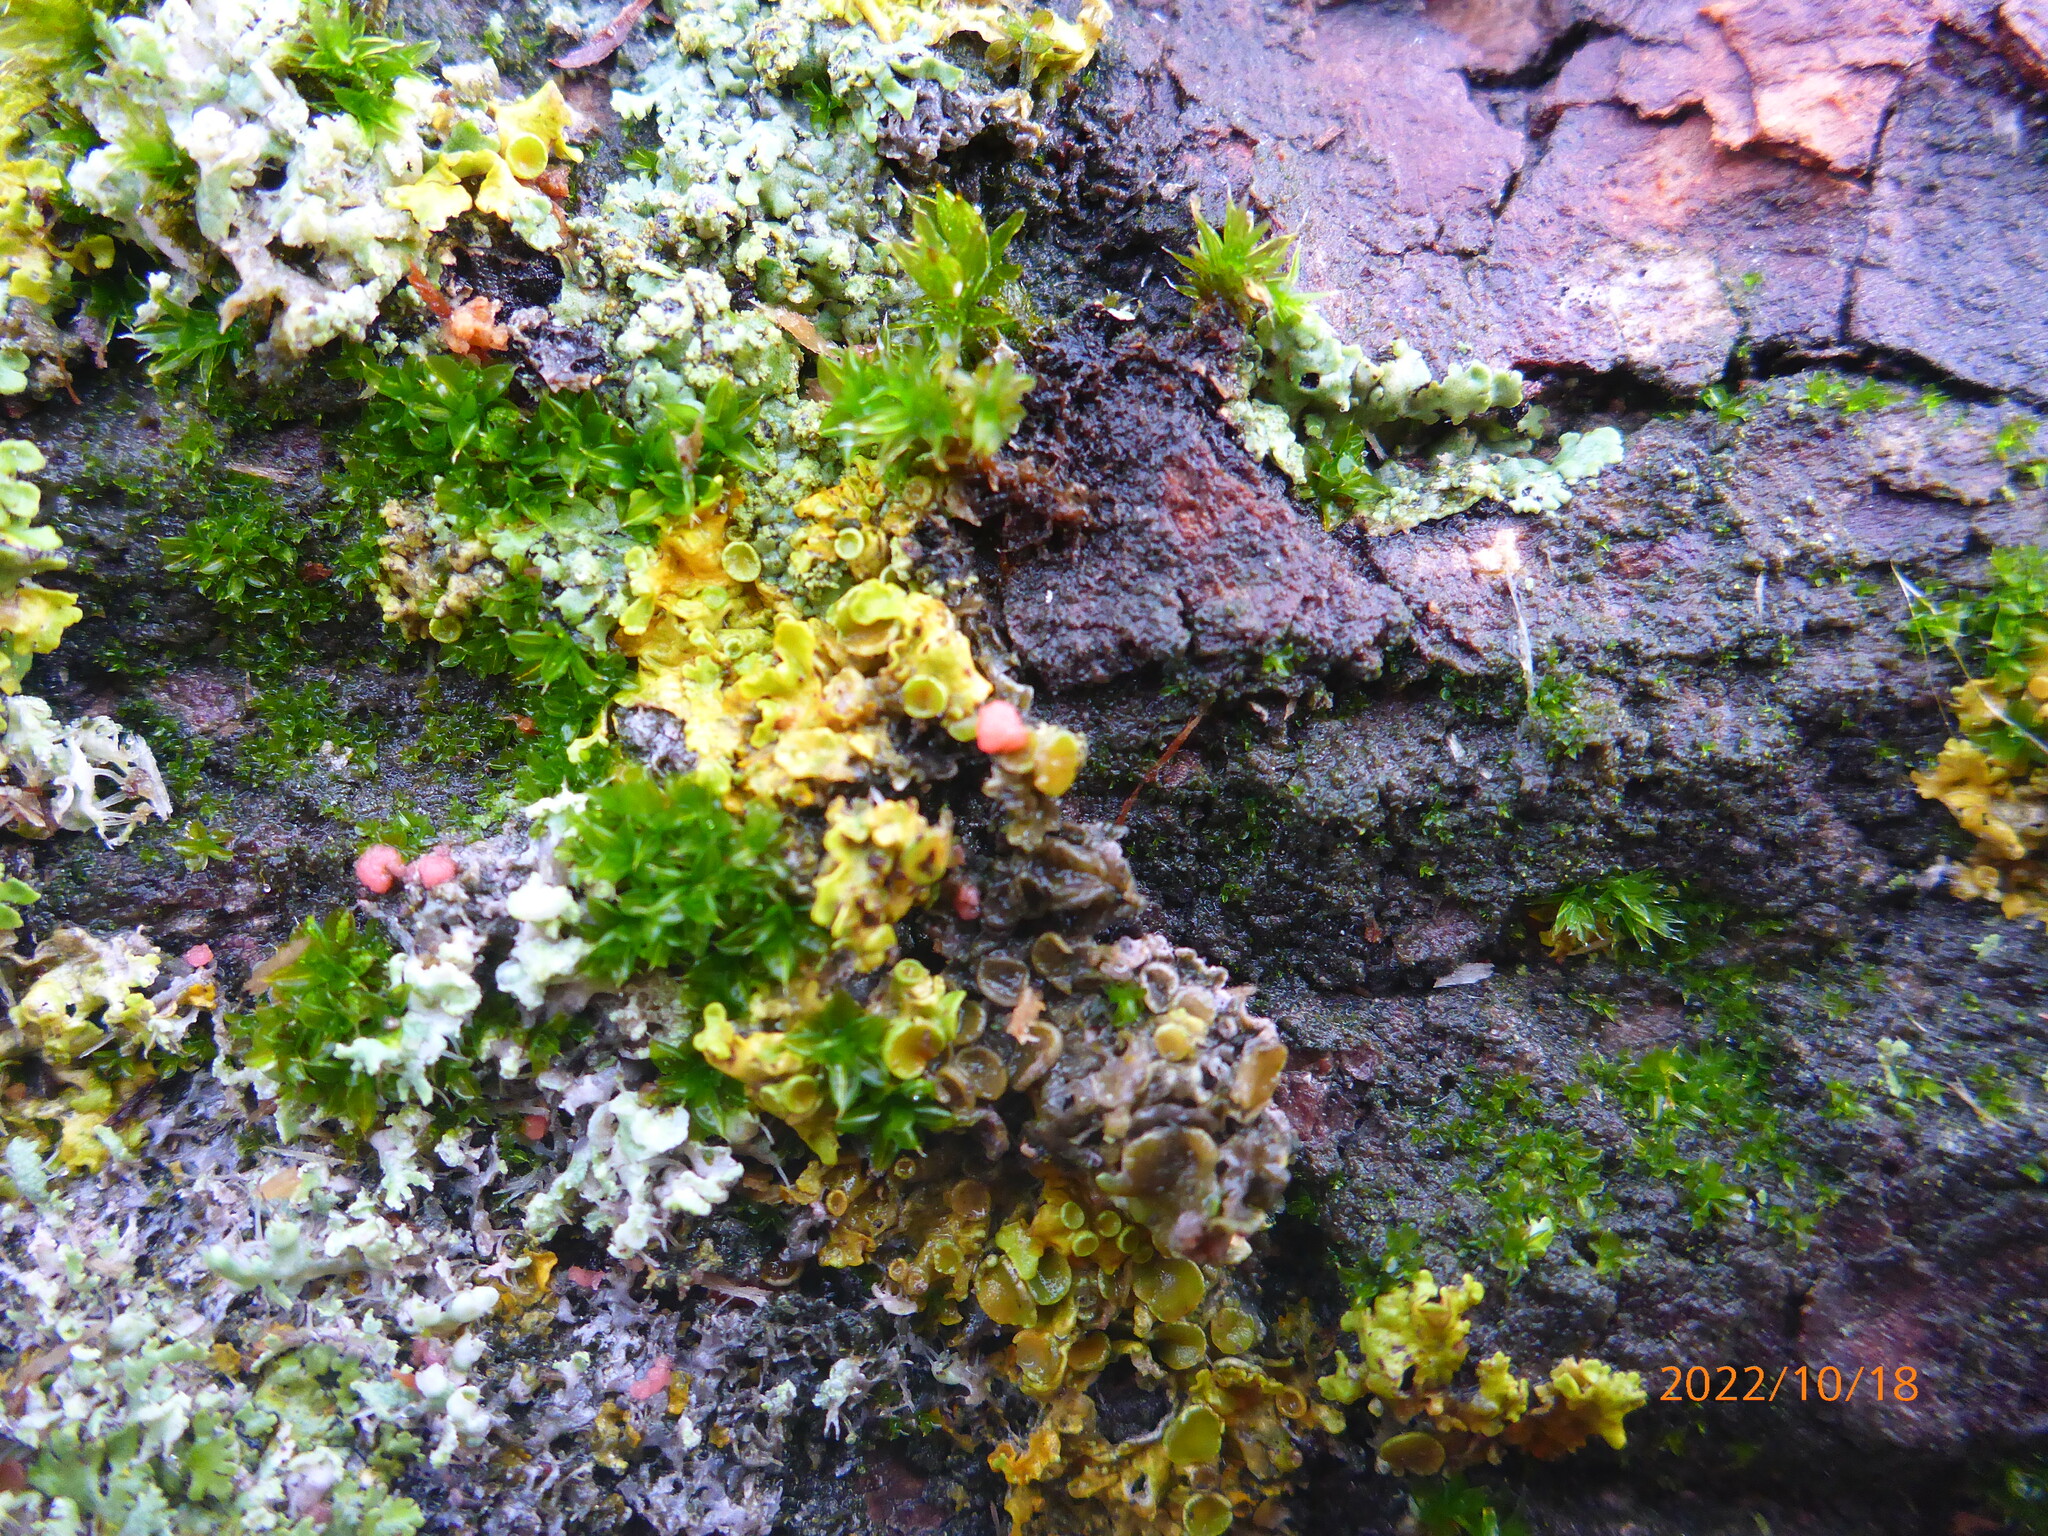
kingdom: Fungi
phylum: Ascomycota
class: Sordariomycetes
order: Hypocreales
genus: Illosporiopsis
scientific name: Illosporiopsis christiansenii
